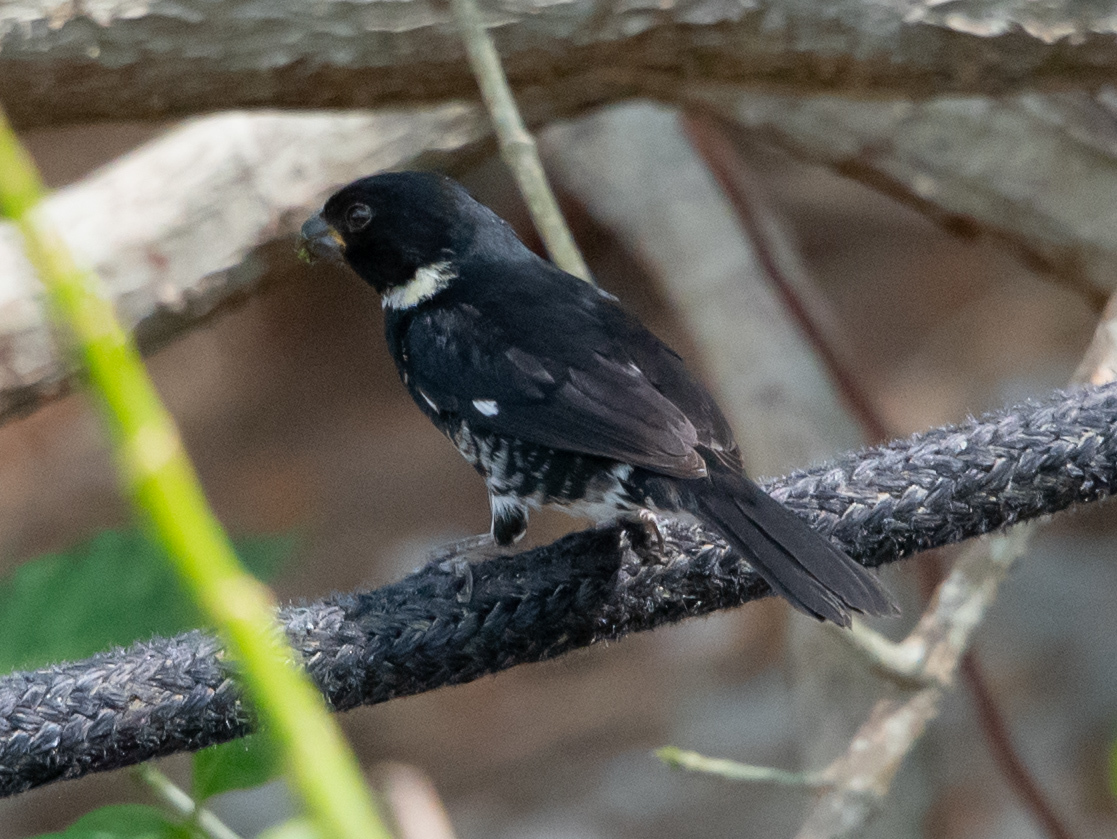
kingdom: Animalia
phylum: Chordata
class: Aves
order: Passeriformes
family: Thraupidae
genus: Sporophila
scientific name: Sporophila corvina
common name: Variable seedeater
